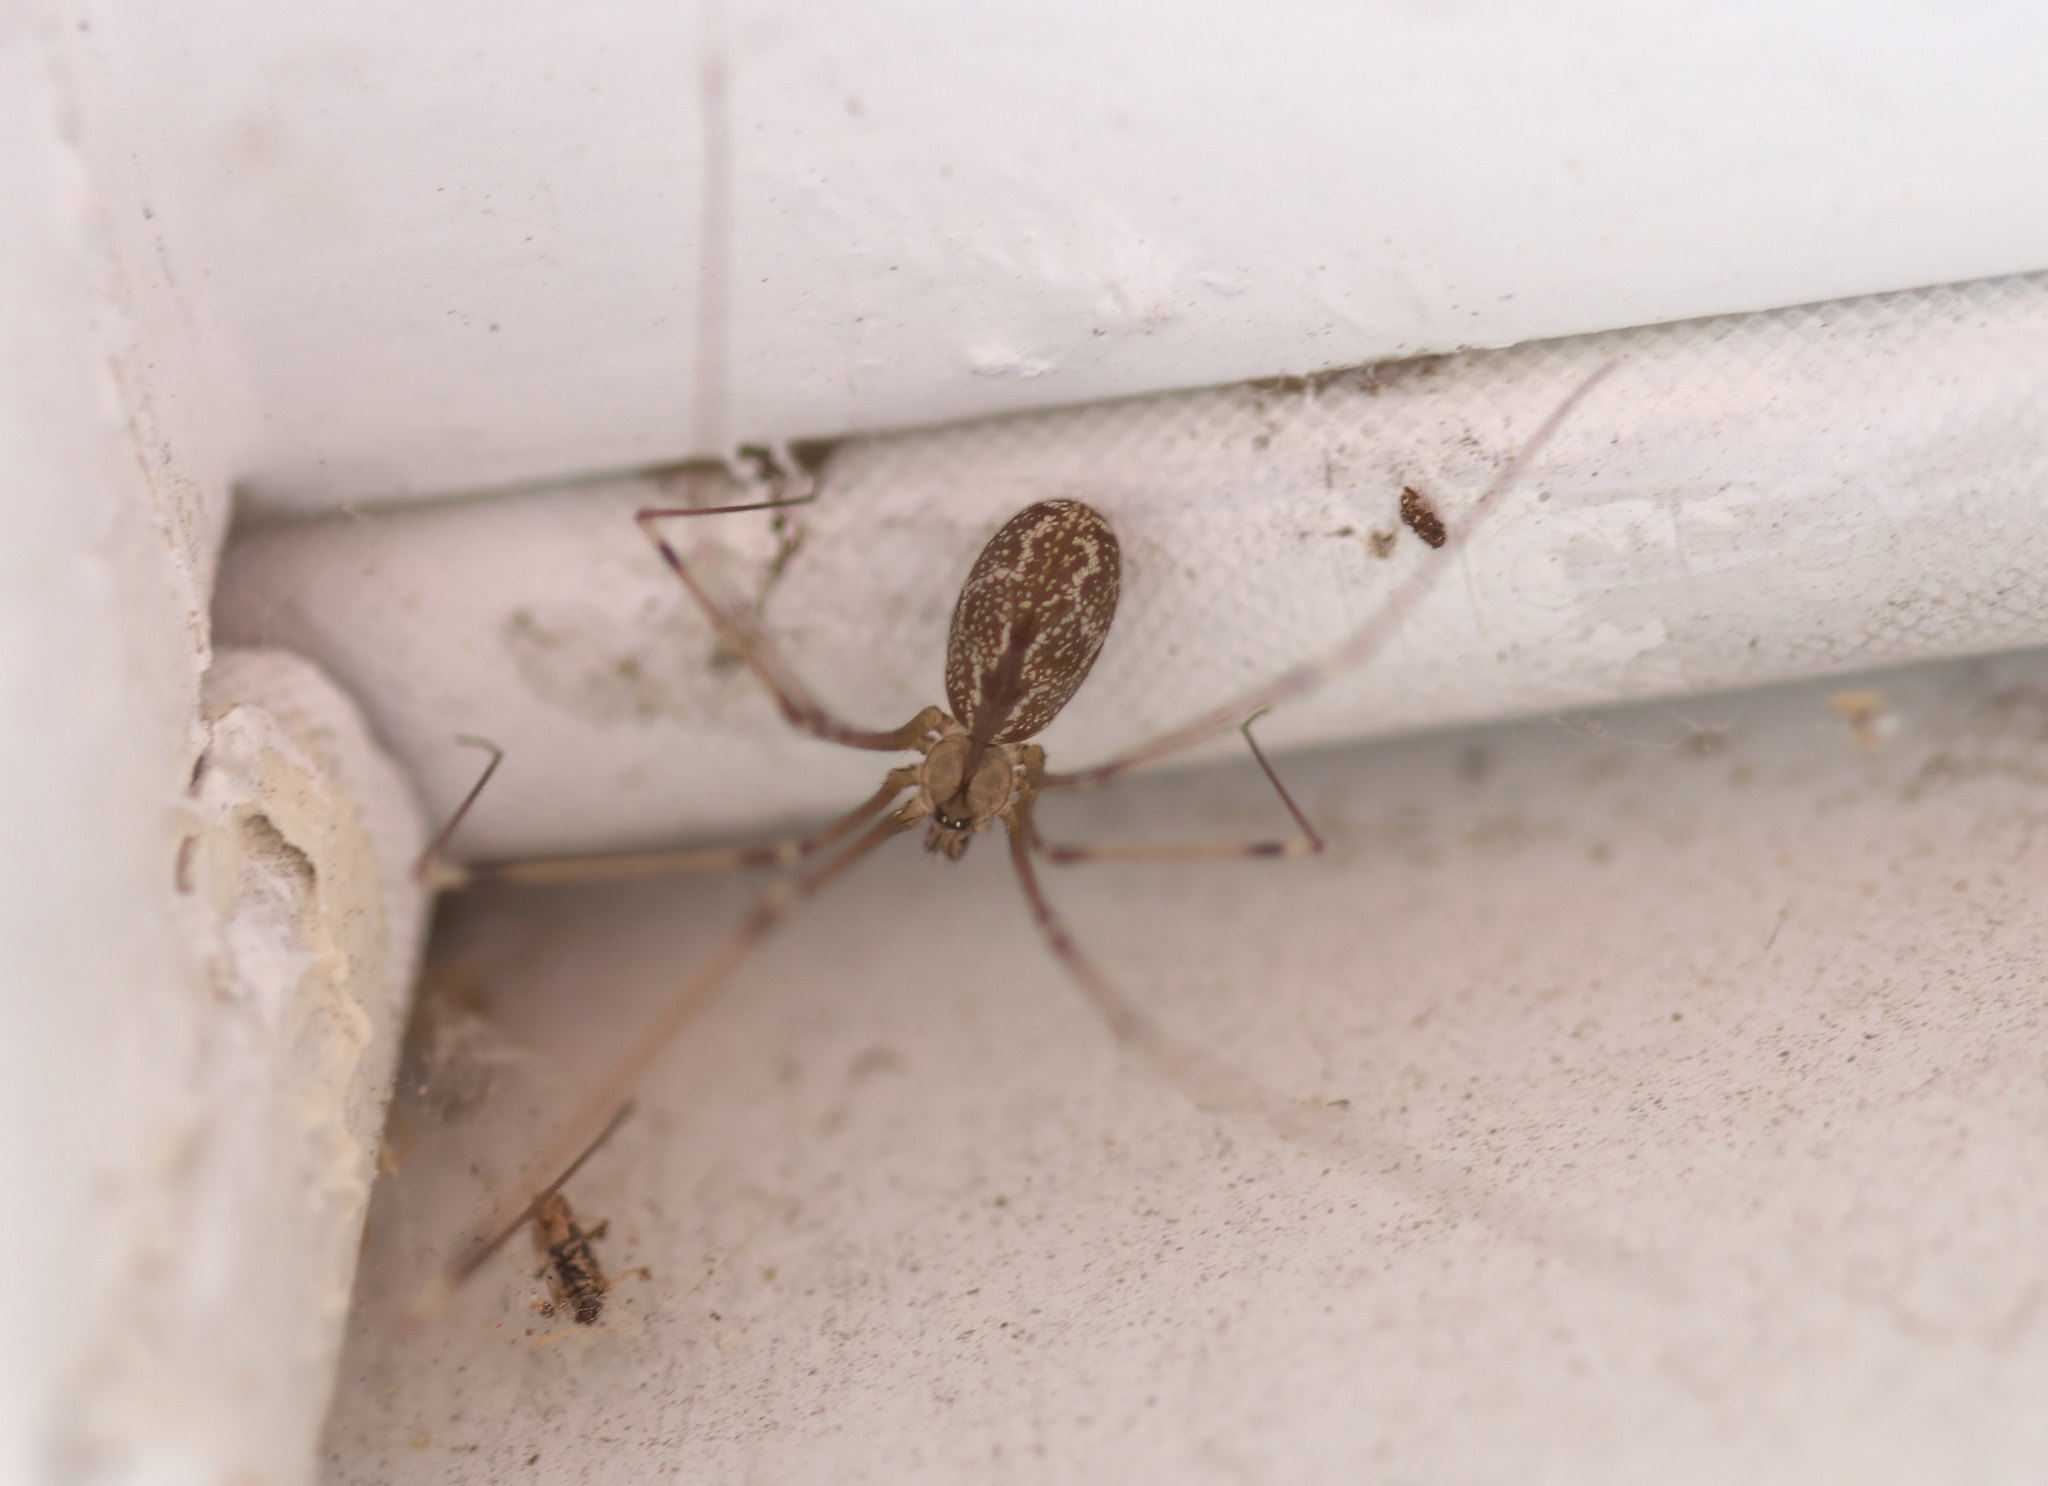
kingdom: Animalia
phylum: Arthropoda
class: Arachnida
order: Araneae
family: Pholcidae
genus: Holocnemus
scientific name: Holocnemus pluchei
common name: Marbled cellar spider
